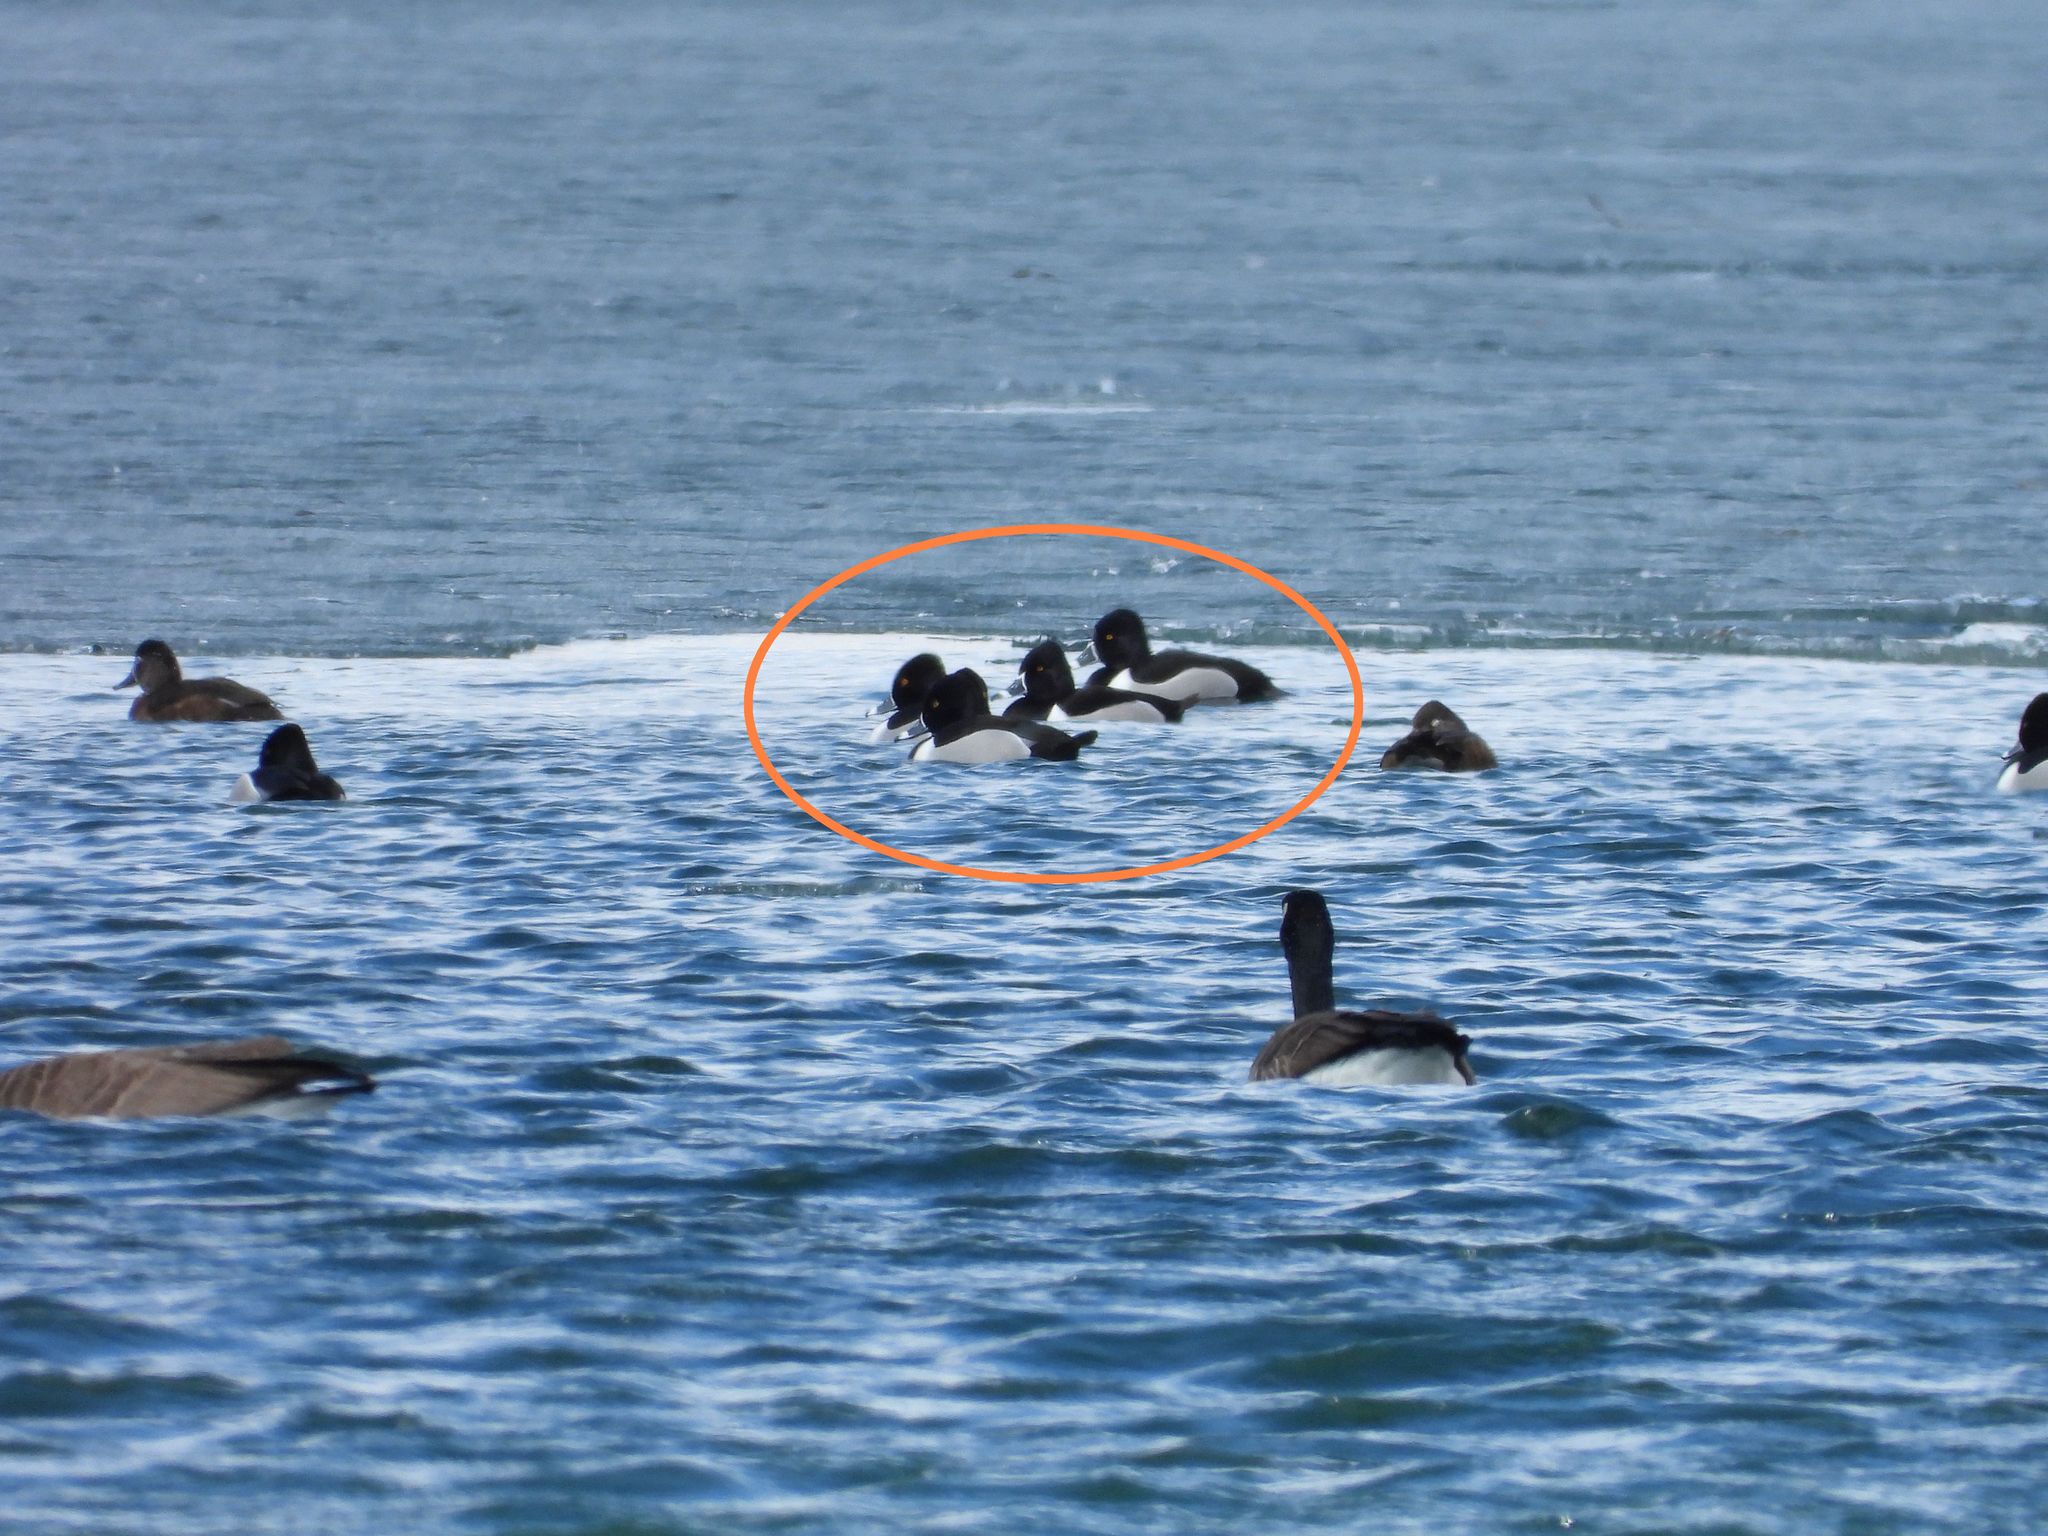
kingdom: Animalia
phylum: Chordata
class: Aves
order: Anseriformes
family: Anatidae
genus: Aythya
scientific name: Aythya collaris
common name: Ring-necked duck
